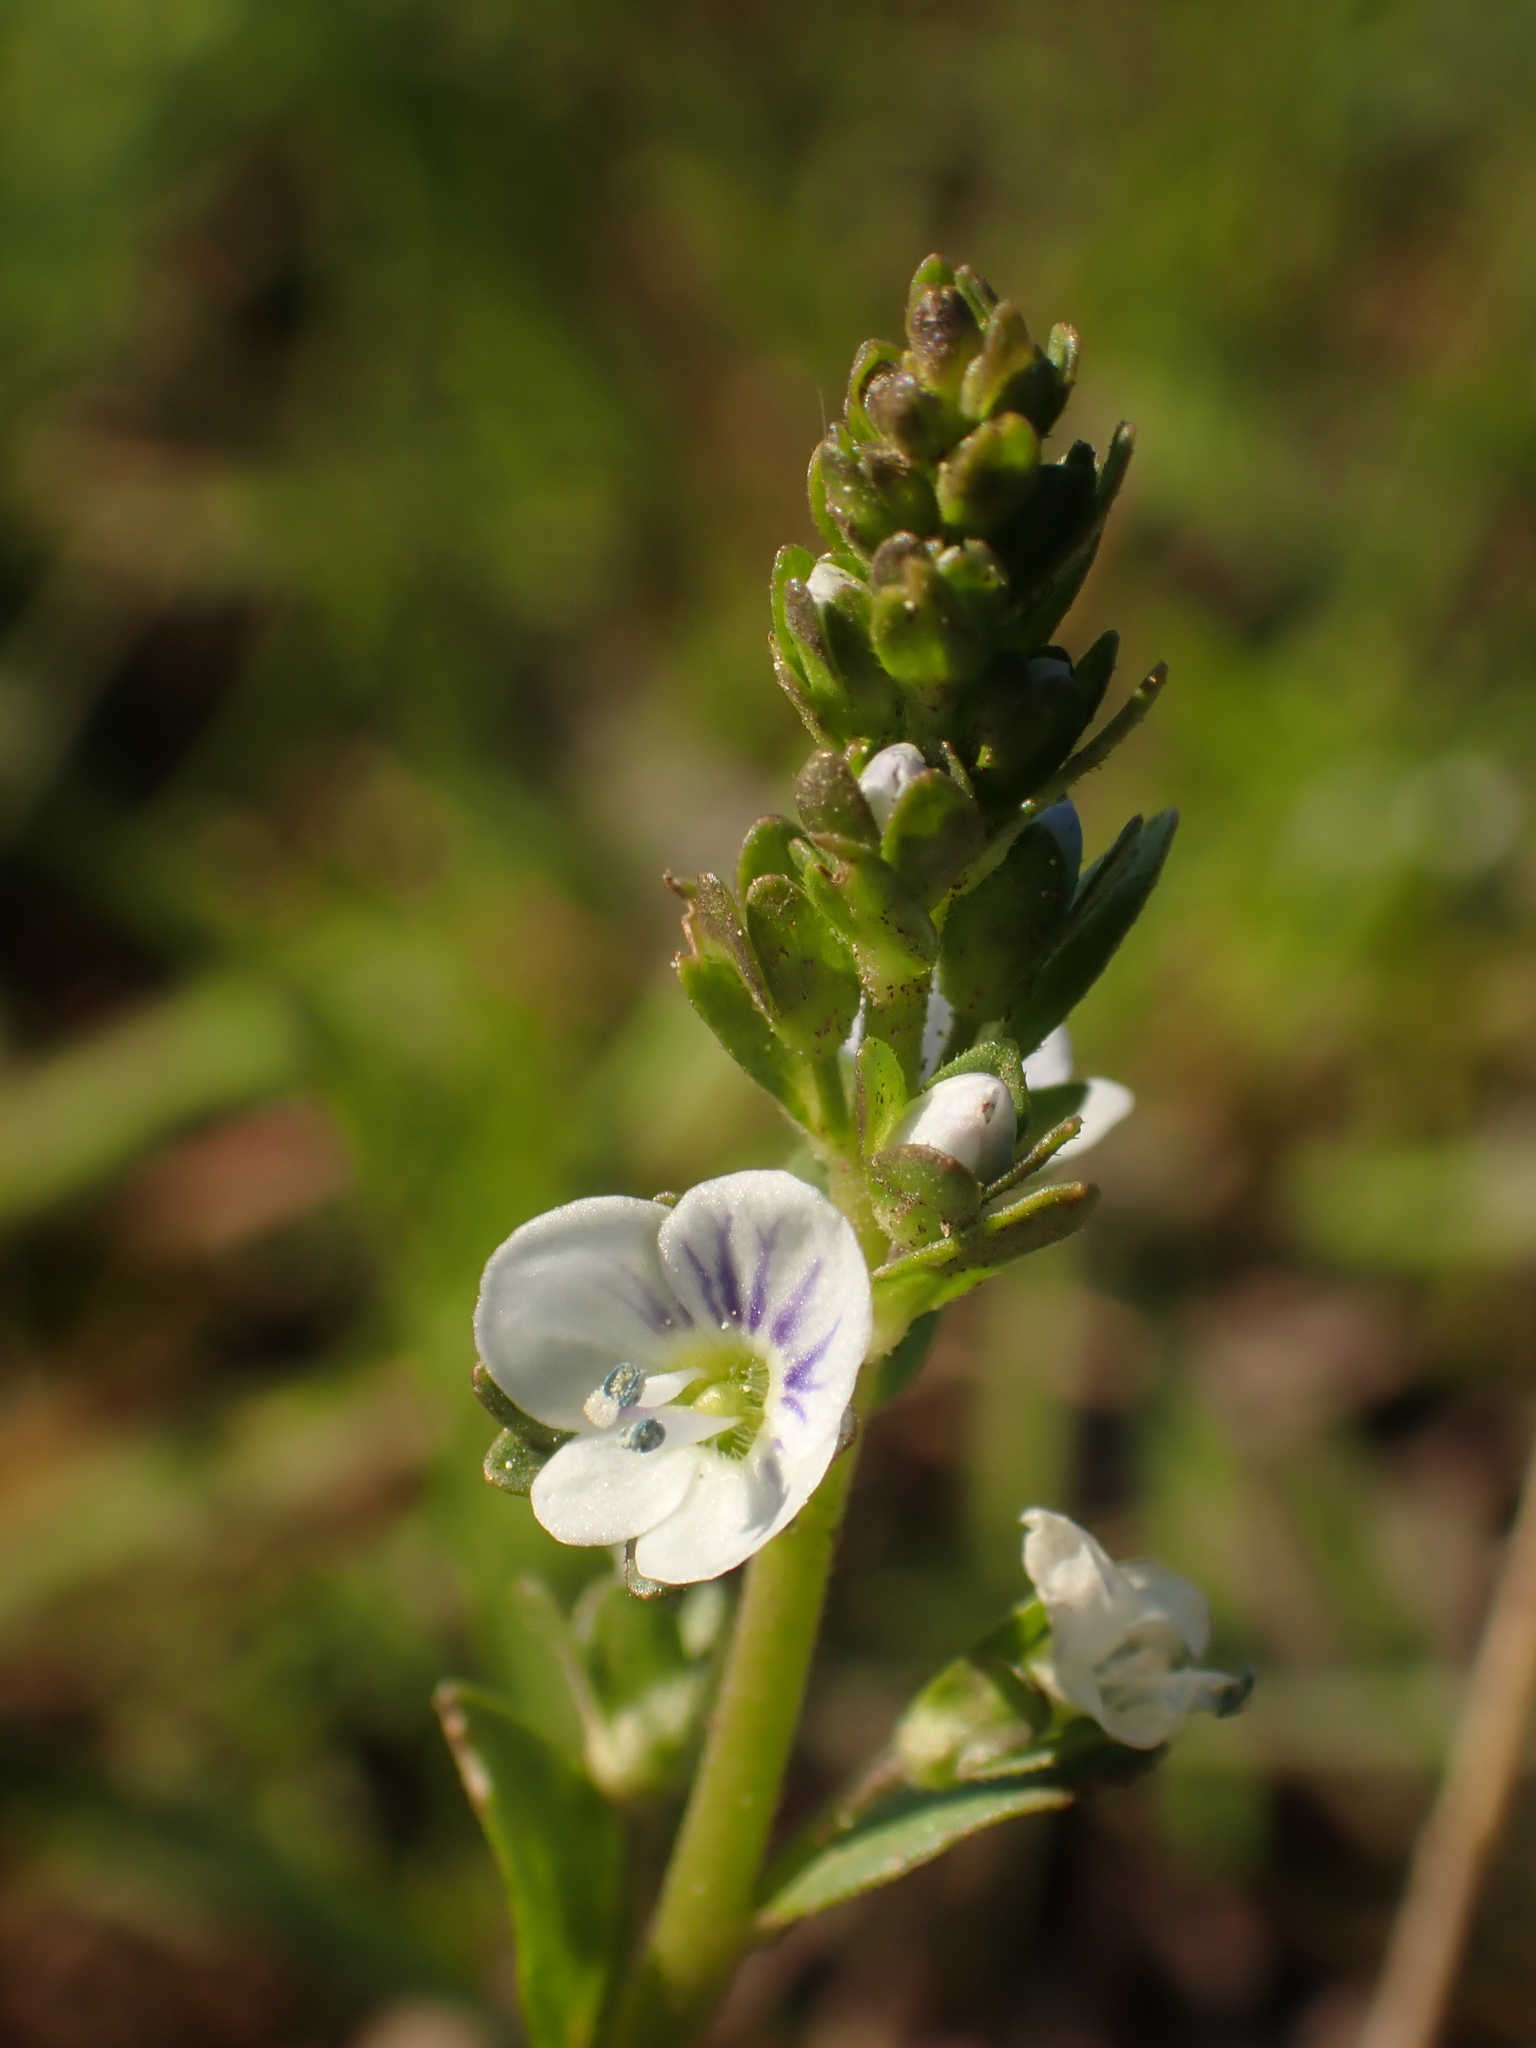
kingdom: Plantae
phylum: Tracheophyta
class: Magnoliopsida
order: Lamiales
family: Plantaginaceae
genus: Veronica
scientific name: Veronica serpyllifolia
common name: Thyme-leaved speedwell
